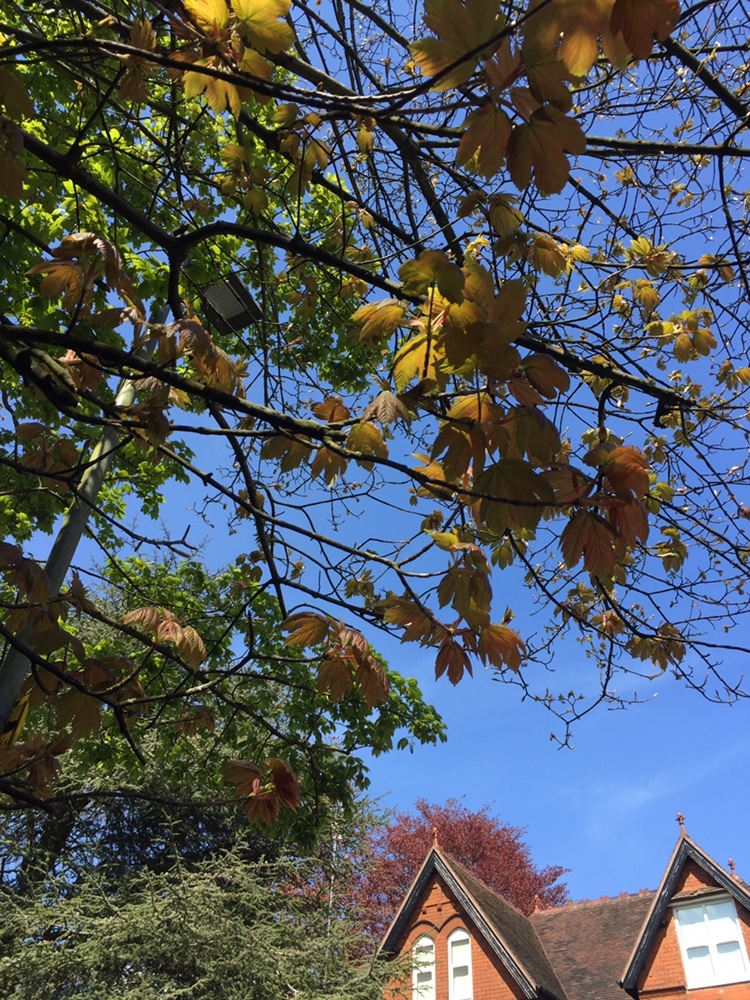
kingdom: Plantae
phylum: Tracheophyta
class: Magnoliopsida
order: Sapindales
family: Sapindaceae
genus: Acer
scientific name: Acer pseudoplatanus
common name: Sycamore
